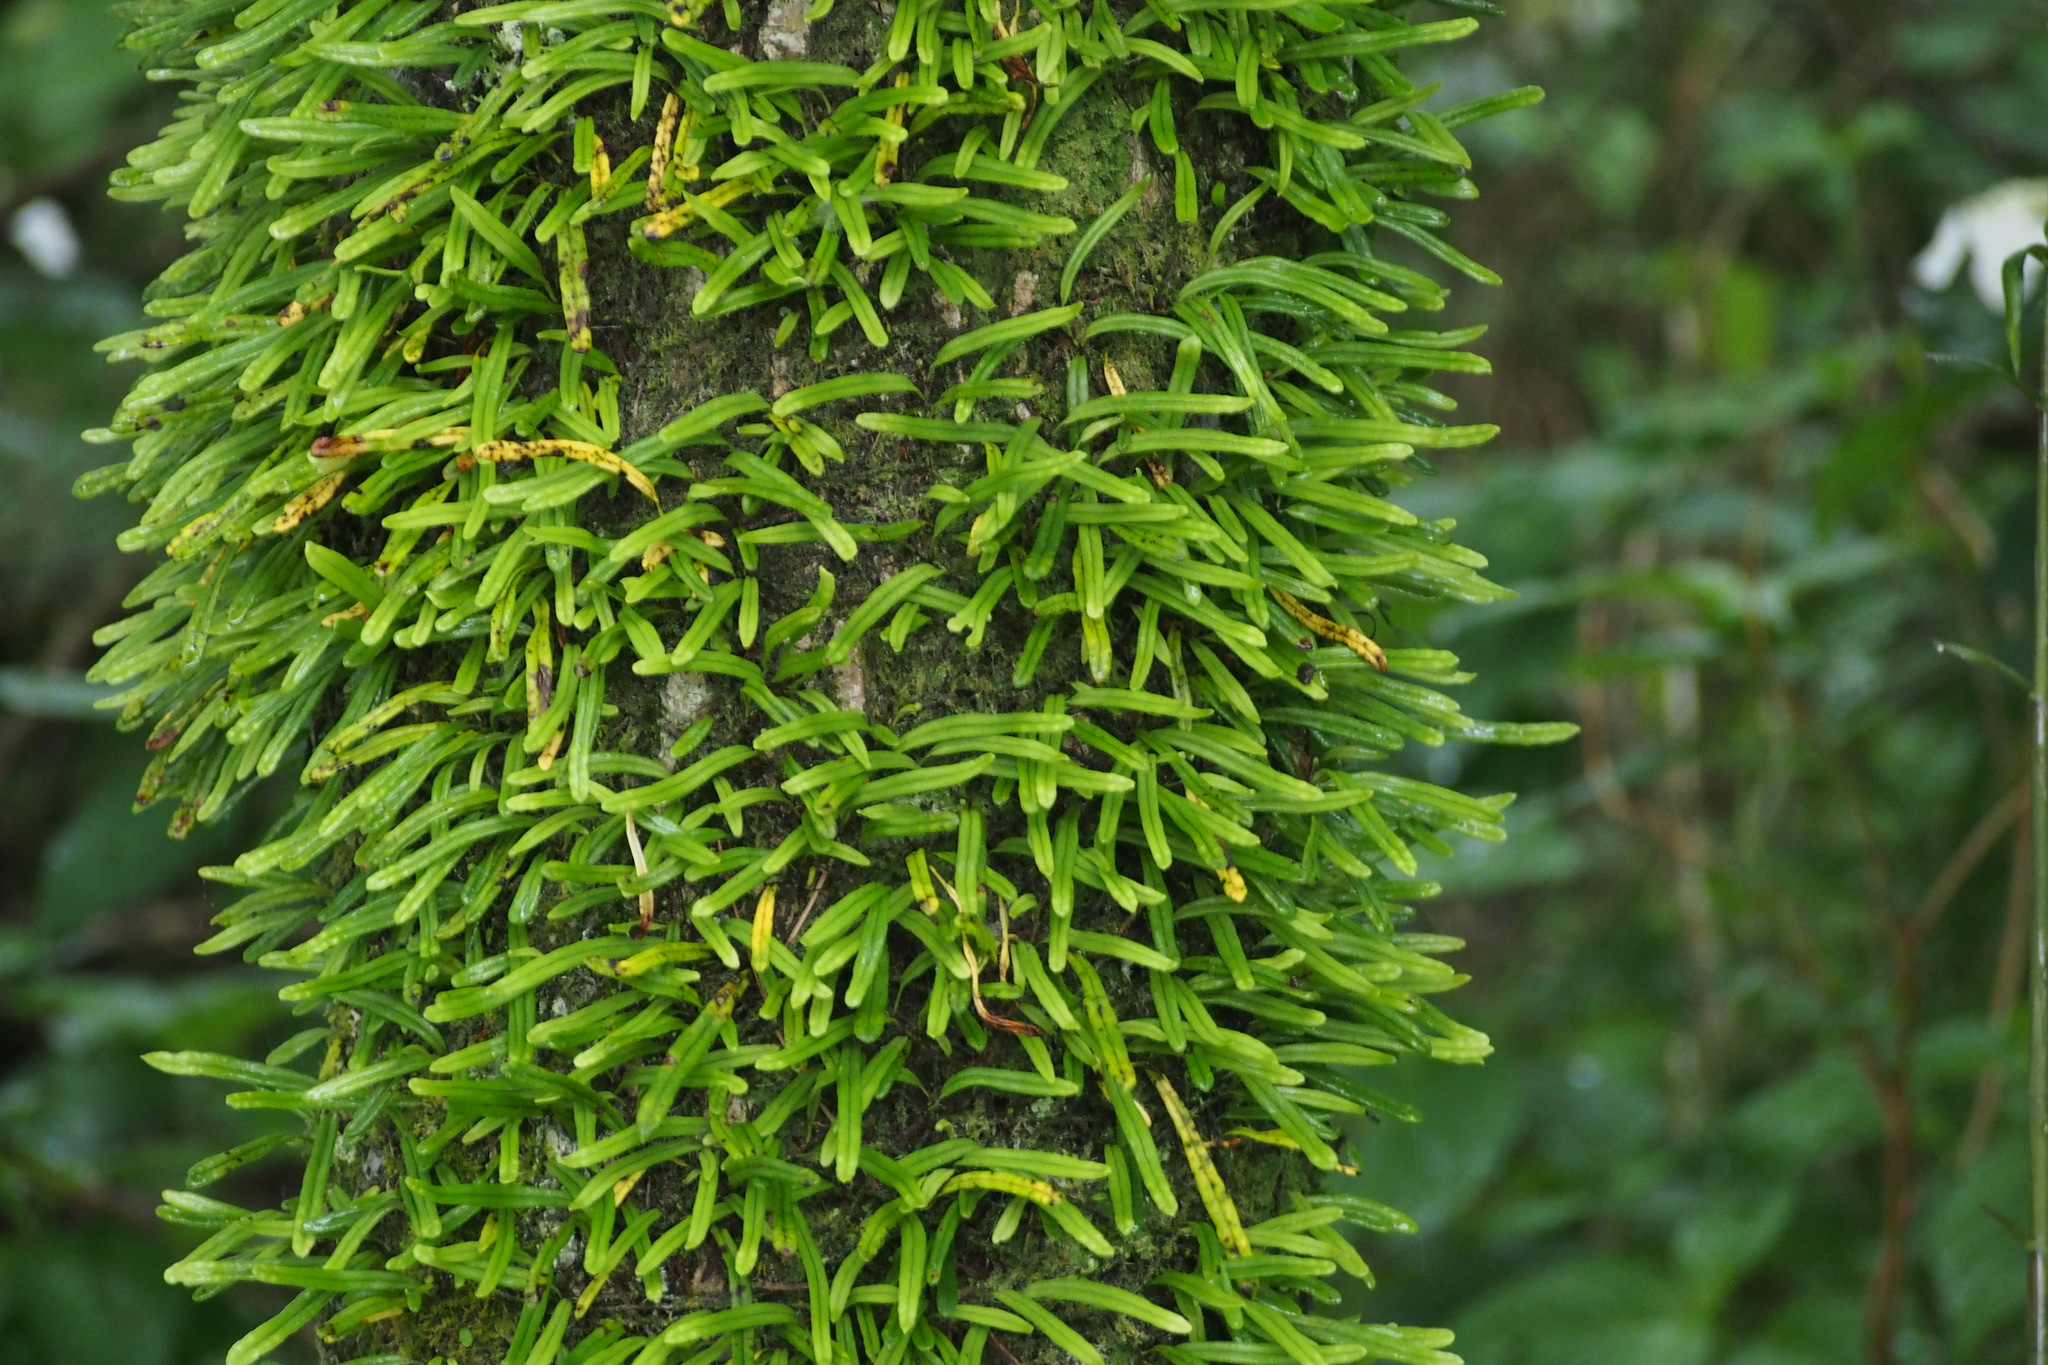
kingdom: Plantae
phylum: Tracheophyta
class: Polypodiopsida
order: Polypodiales
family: Polypodiaceae
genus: Lepisorus
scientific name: Lepisorus onoei
